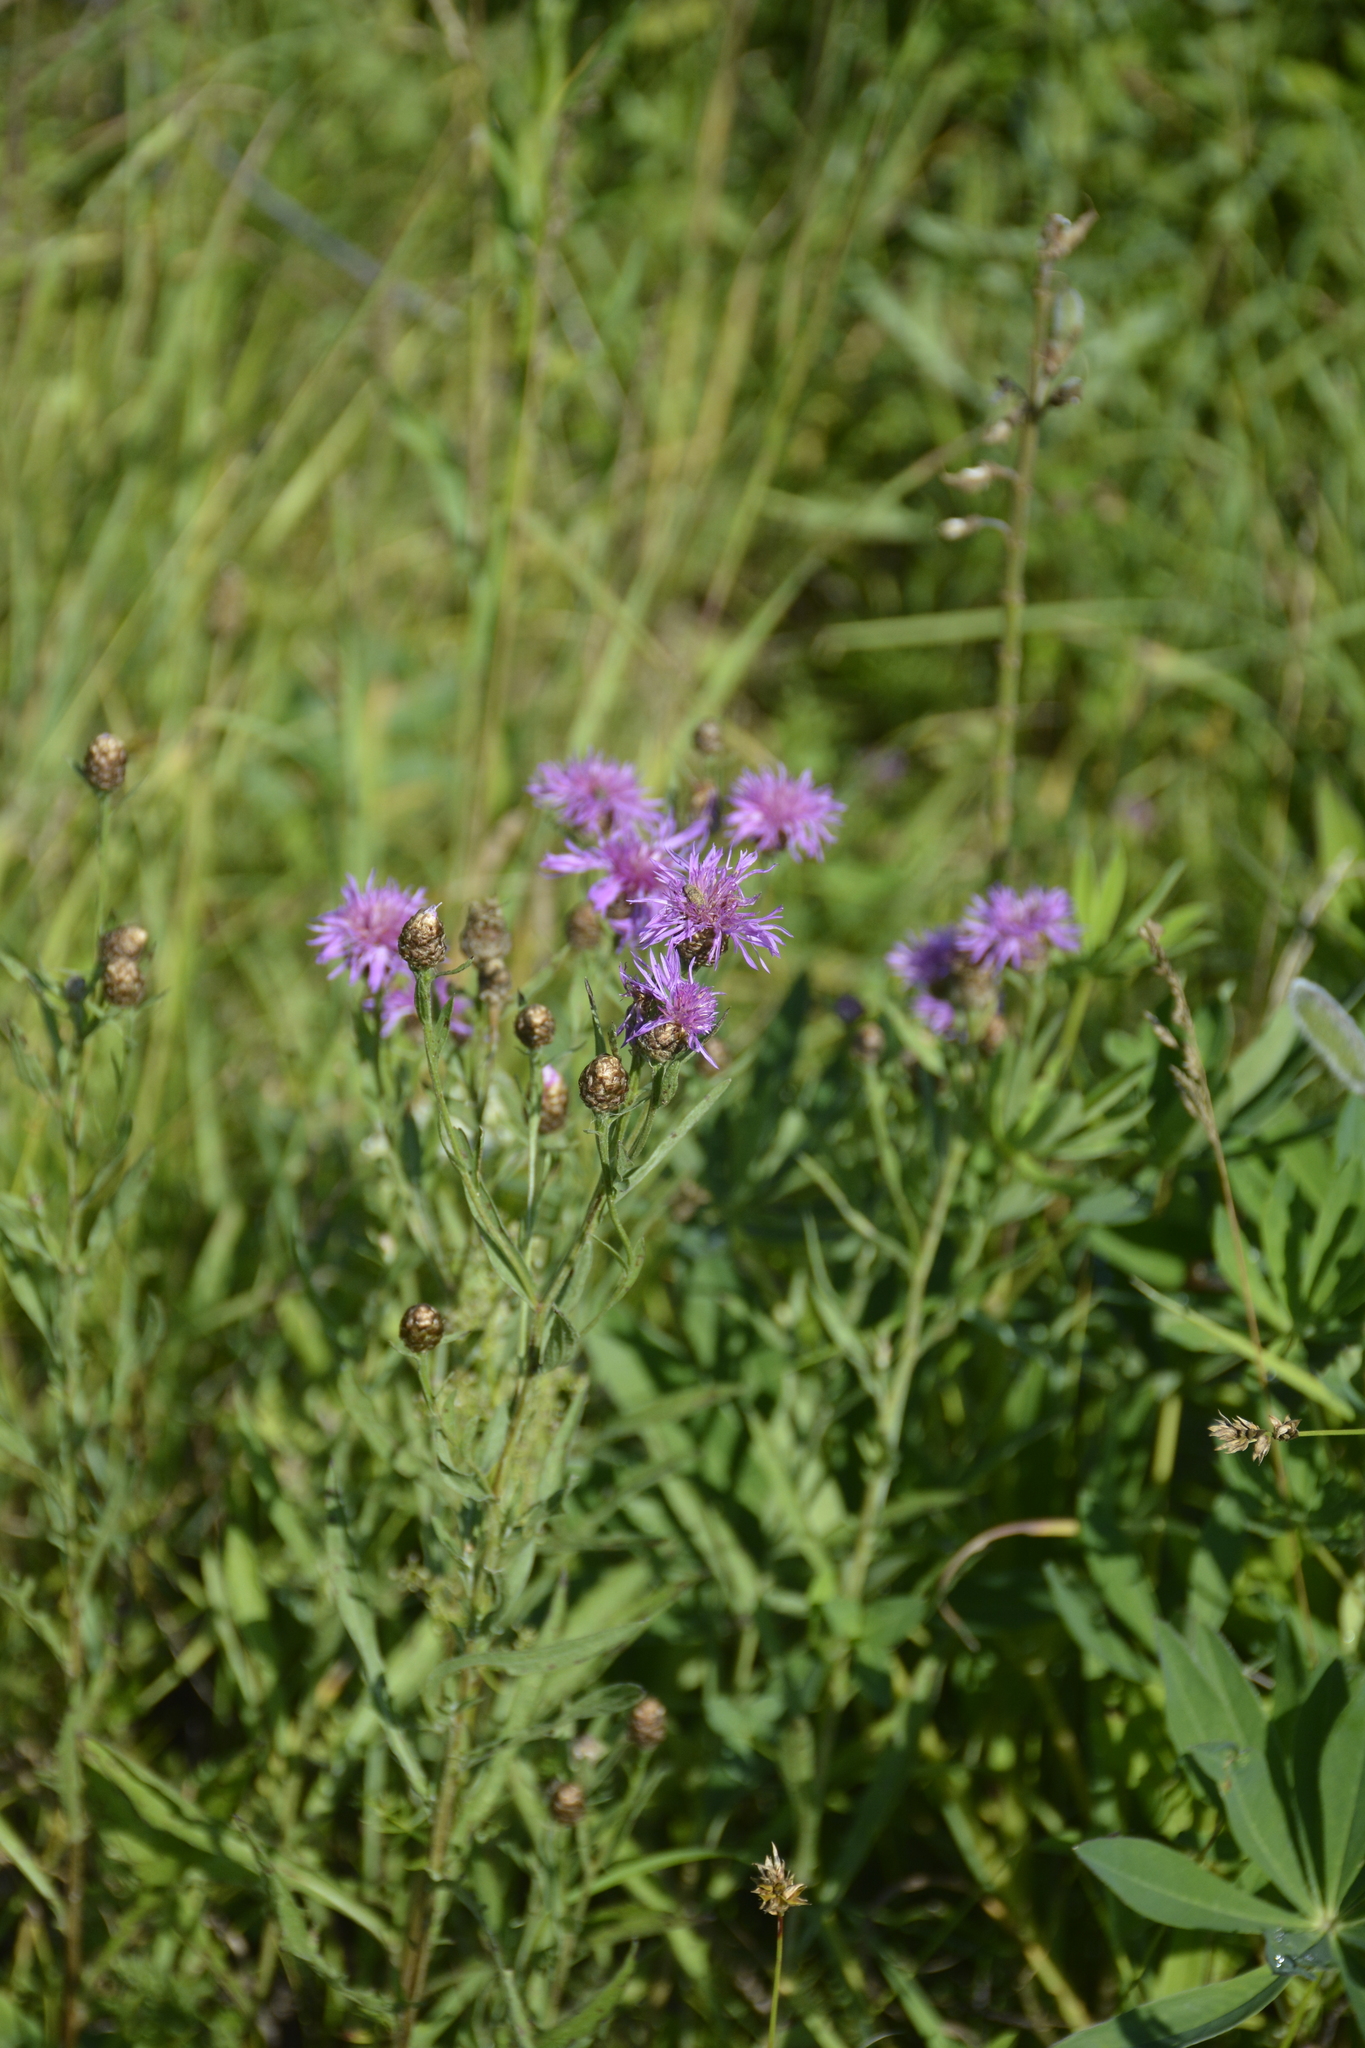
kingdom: Plantae
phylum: Tracheophyta
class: Magnoliopsida
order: Asterales
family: Asteraceae
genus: Centaurea
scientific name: Centaurea jacea
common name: Brown knapweed
